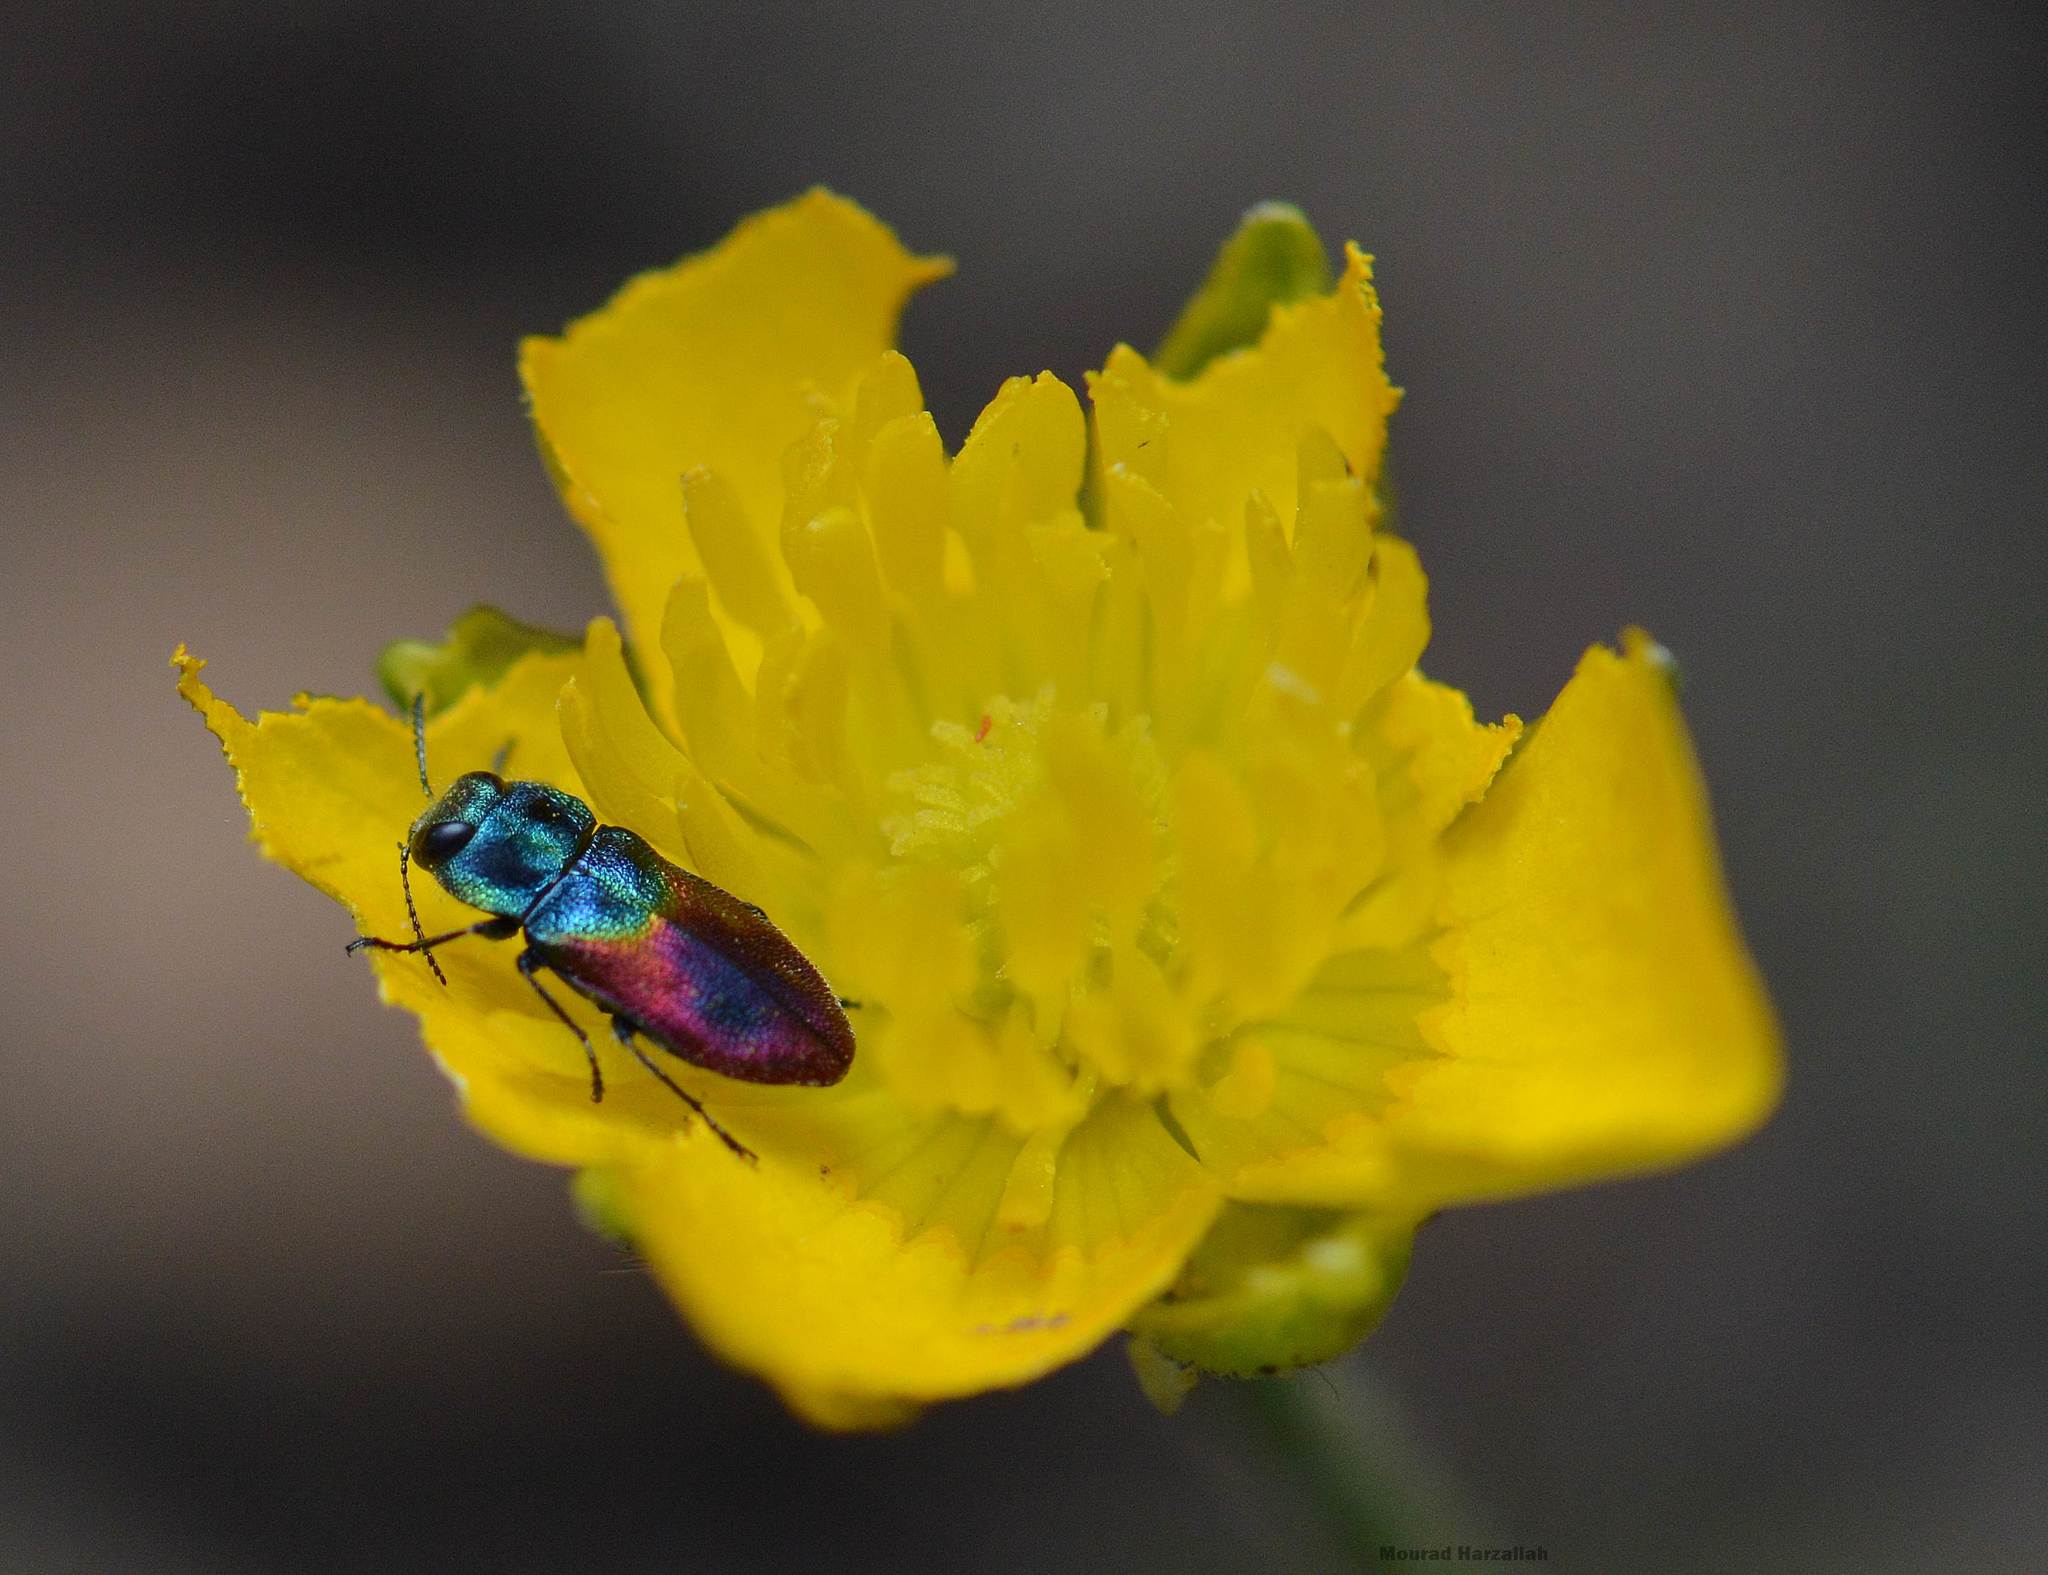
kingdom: Animalia
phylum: Arthropoda
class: Insecta
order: Coleoptera
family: Buprestidae
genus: Anthaxia
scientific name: Anthaxia salicis
